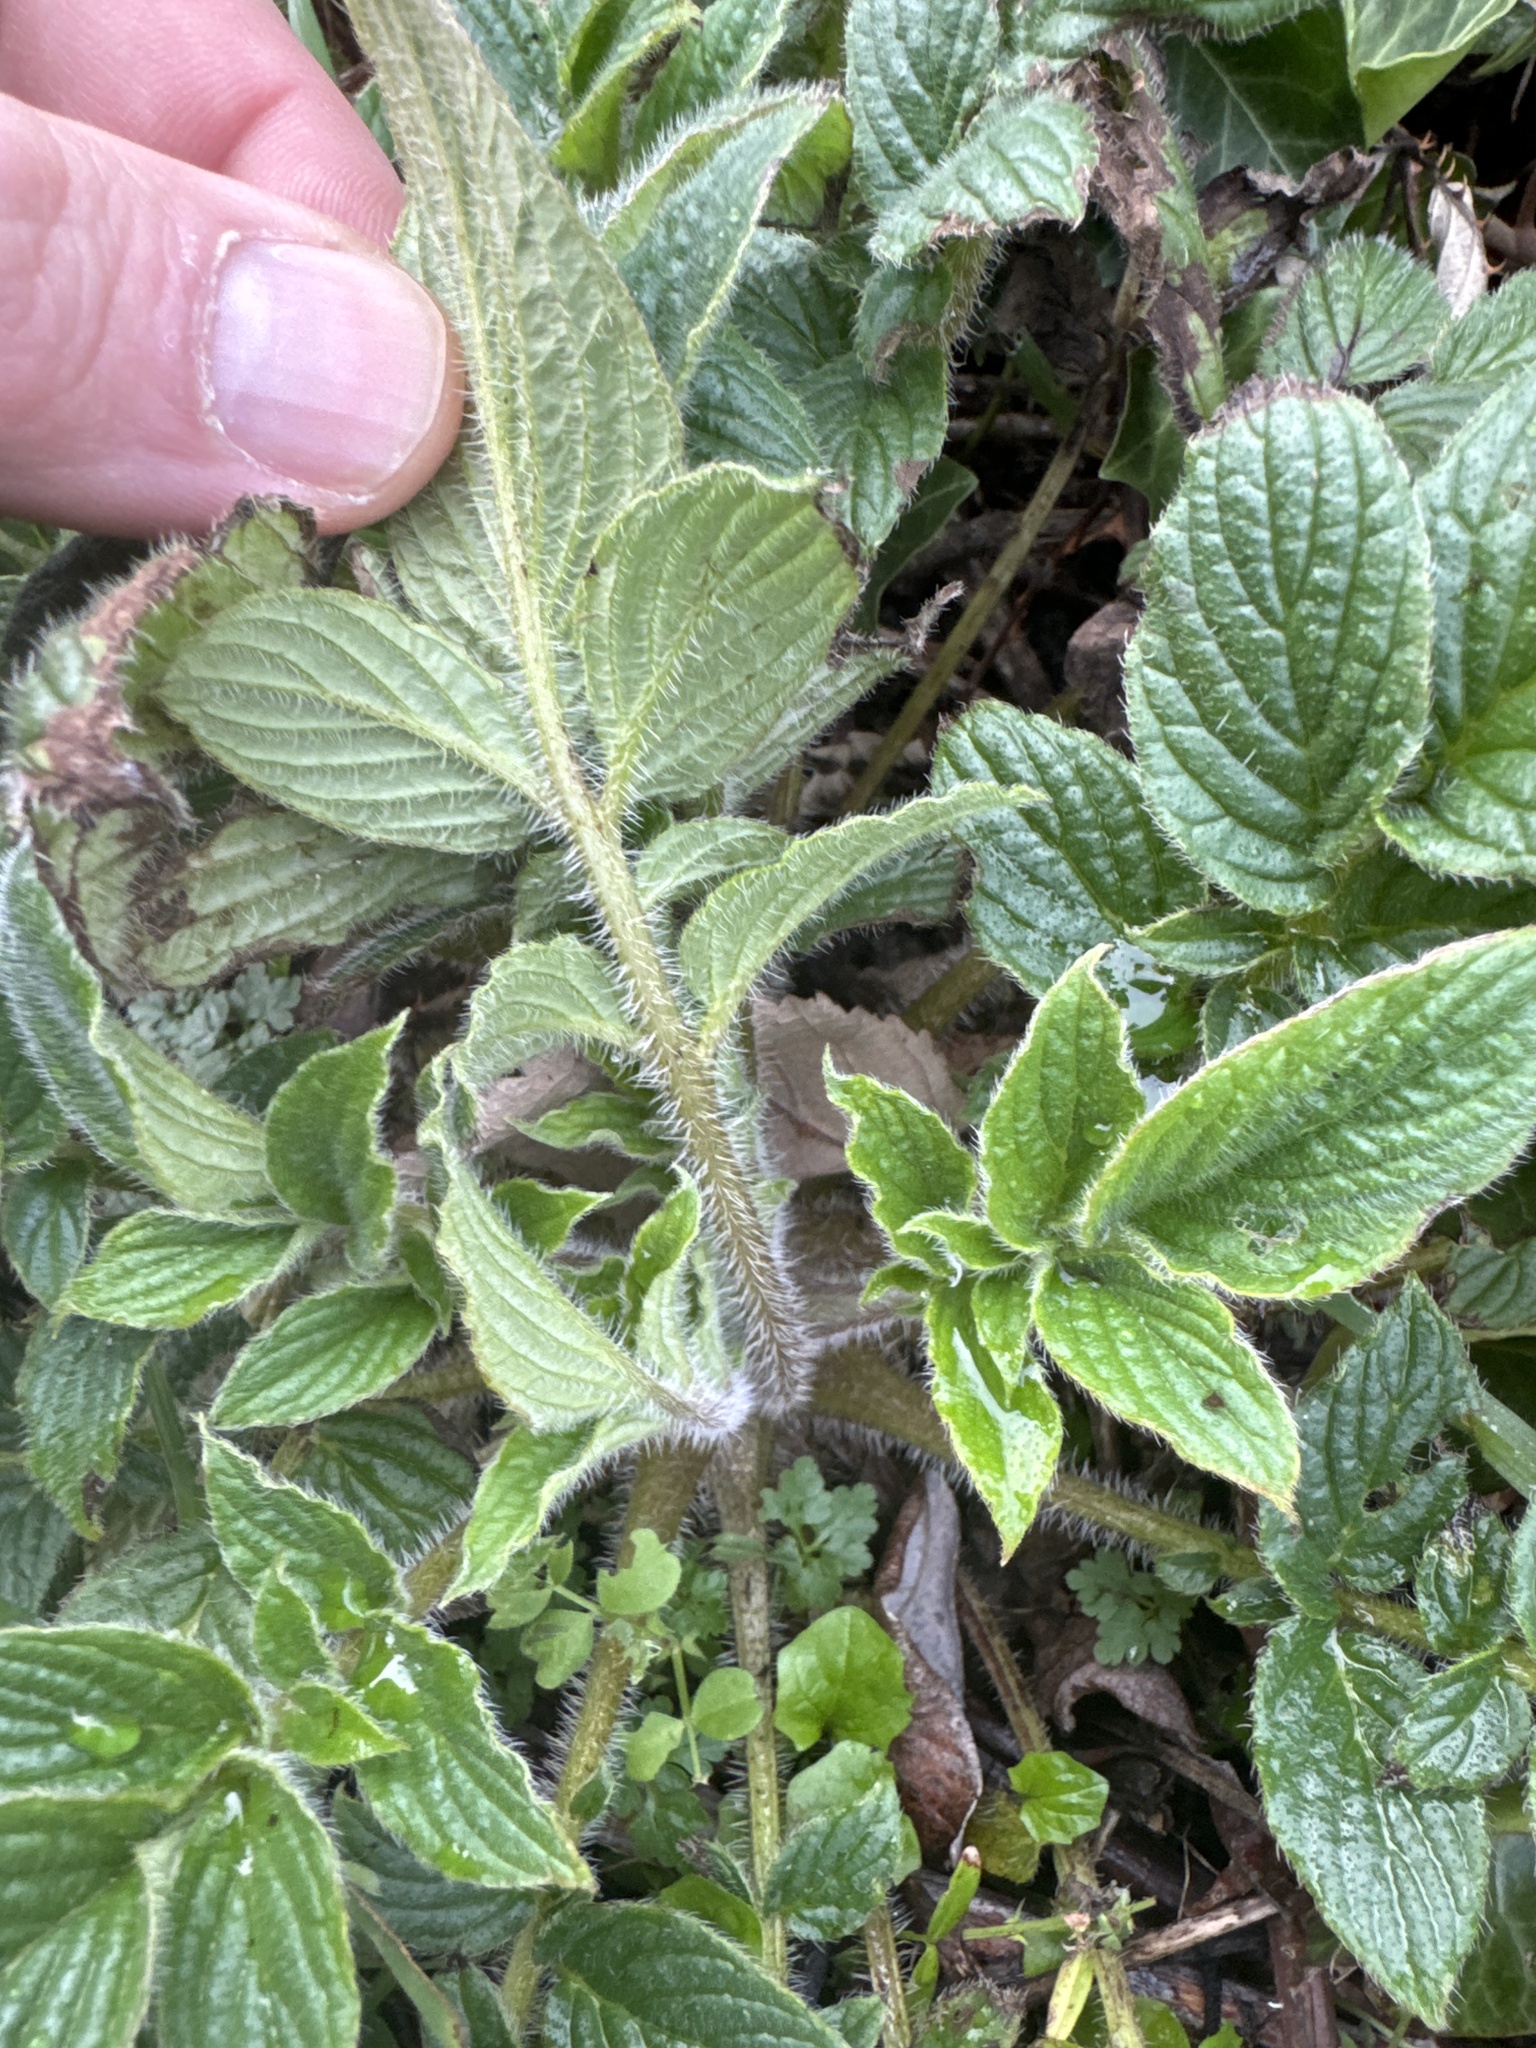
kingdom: Plantae
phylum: Tracheophyta
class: Magnoliopsida
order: Boraginales
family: Hydrophyllaceae
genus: Phacelia
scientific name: Phacelia nemoralis
